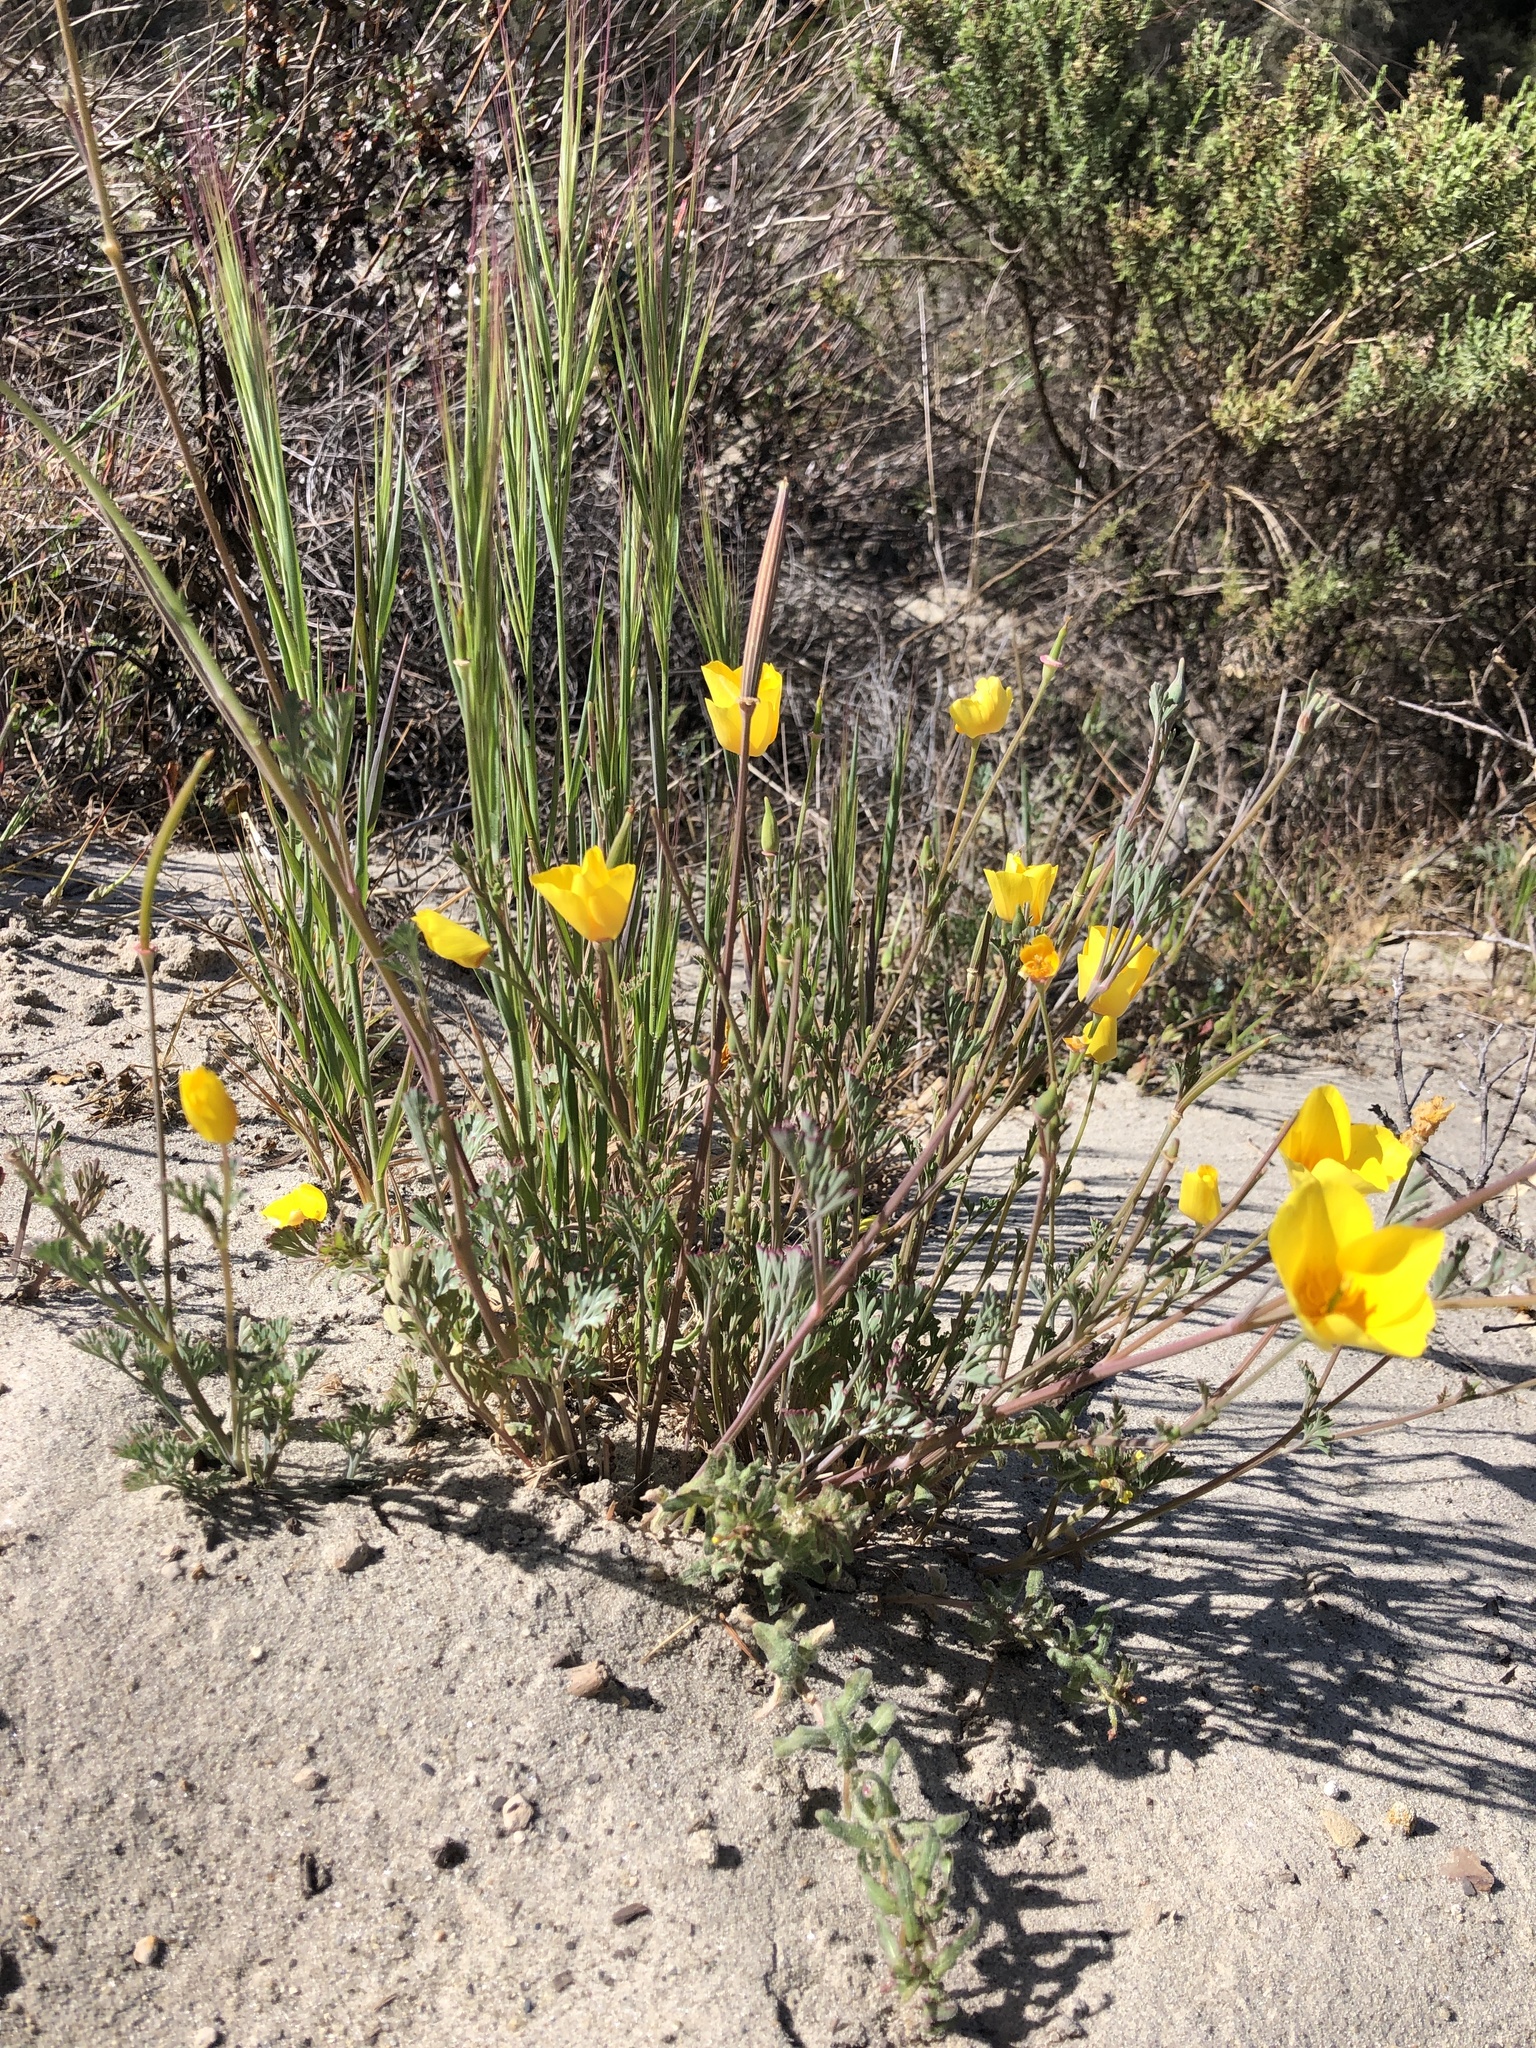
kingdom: Plantae
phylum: Tracheophyta
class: Magnoliopsida
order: Ranunculales
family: Papaveraceae
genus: Eschscholzia
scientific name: Eschscholzia californica
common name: California poppy
